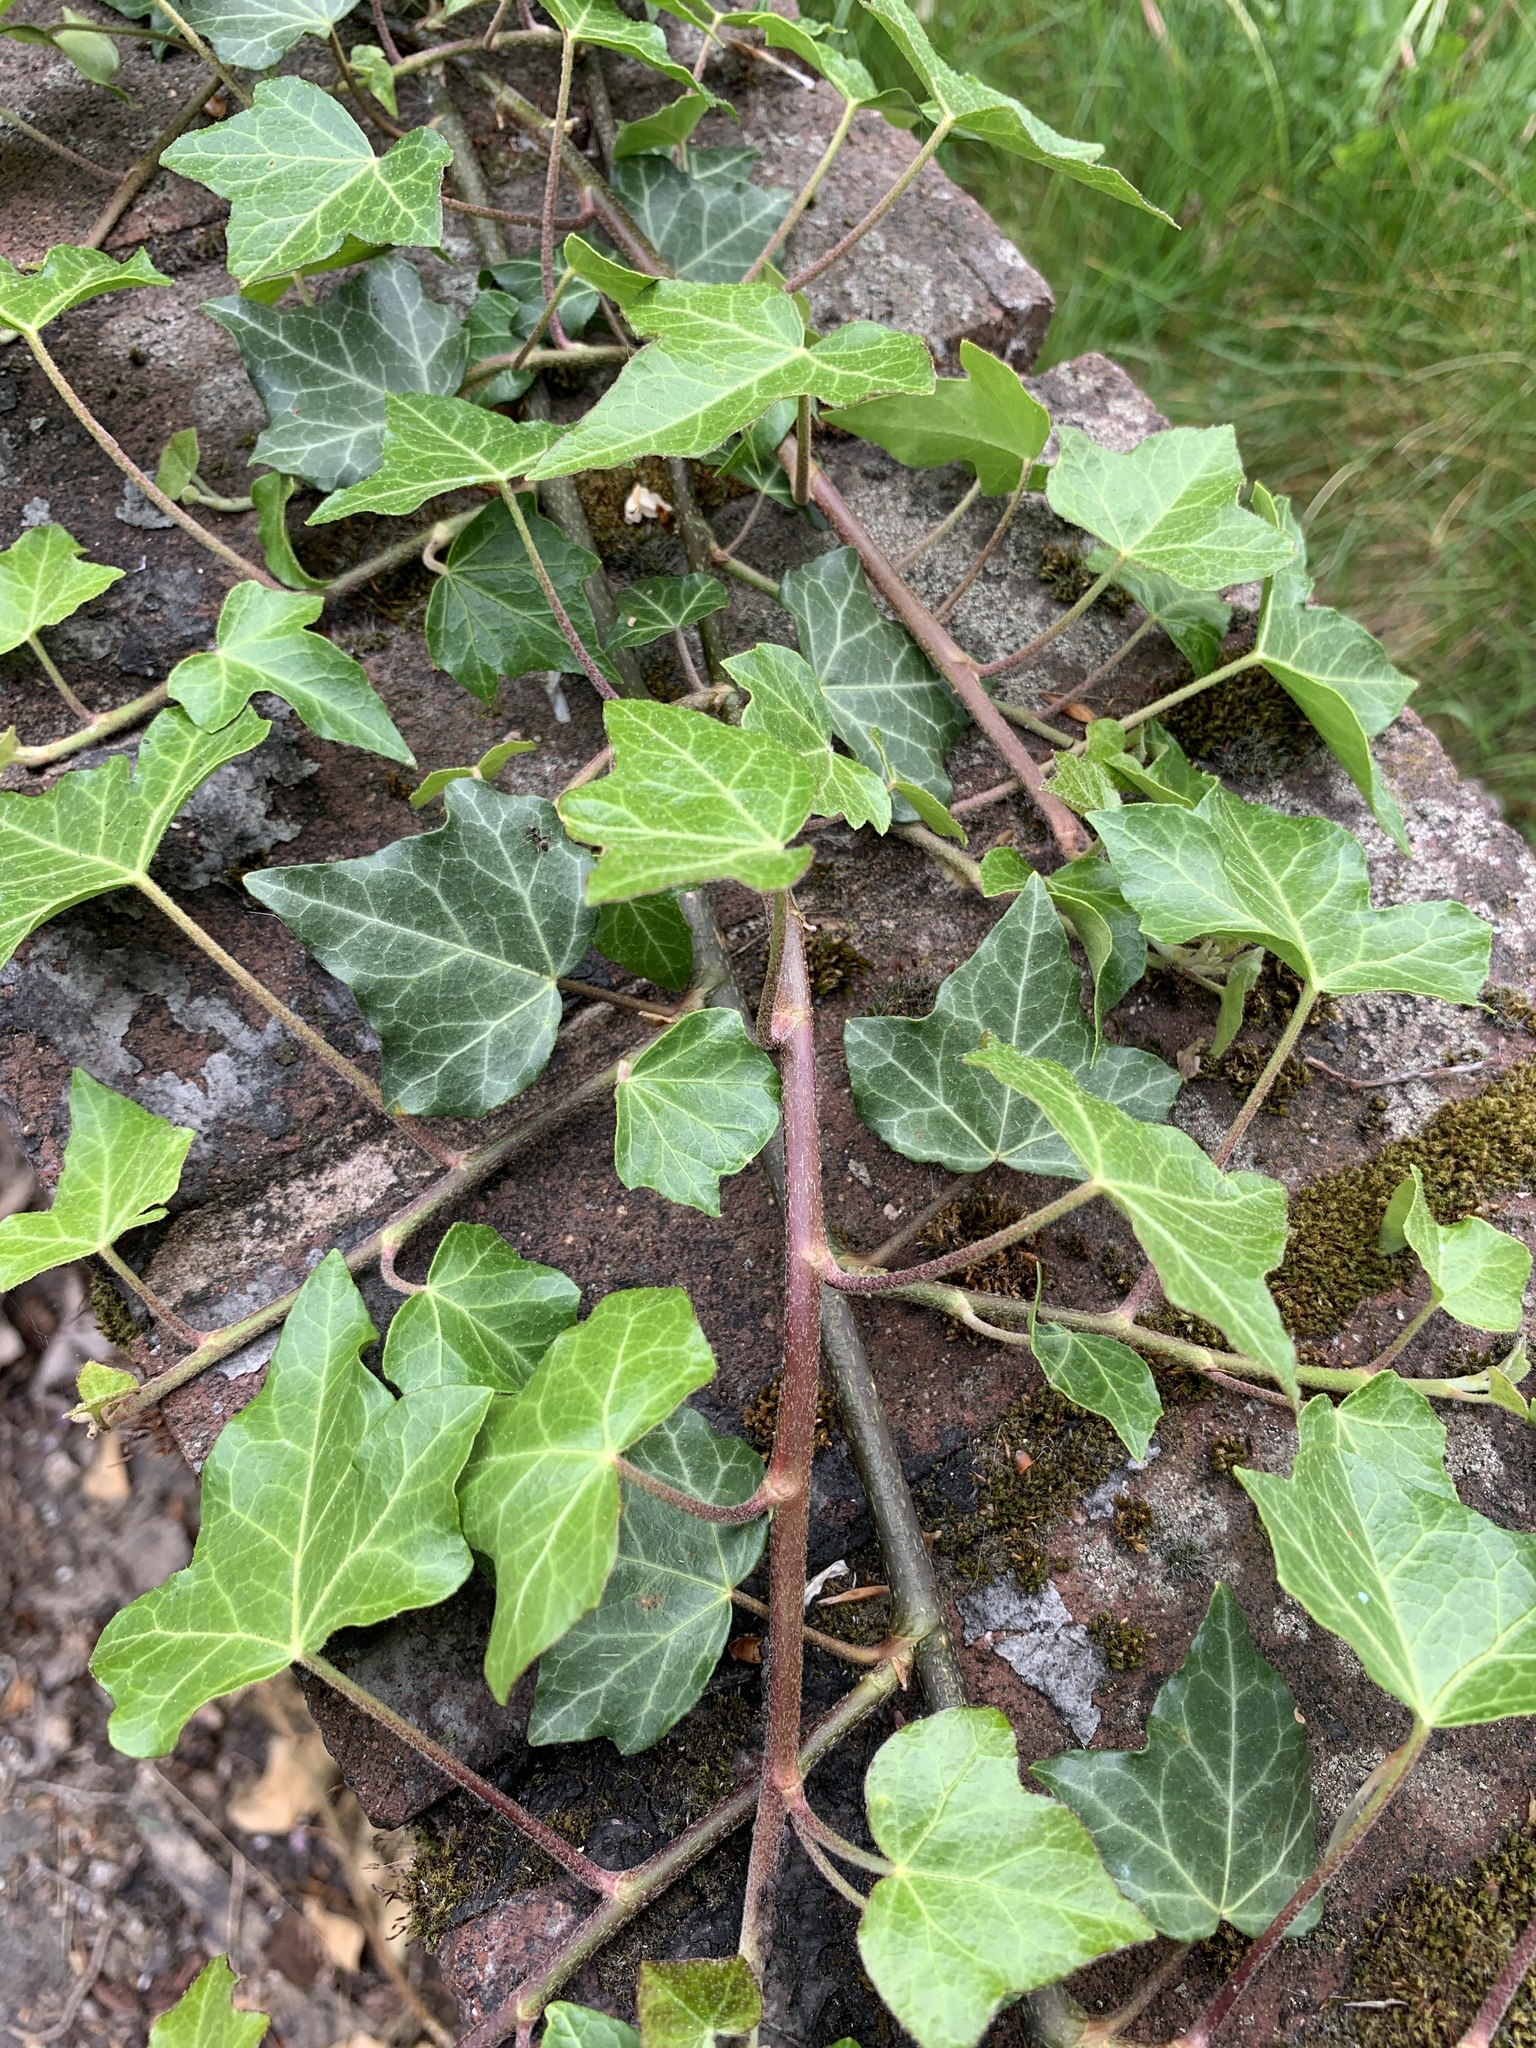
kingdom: Plantae
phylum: Tracheophyta
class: Magnoliopsida
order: Apiales
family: Araliaceae
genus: Hedera
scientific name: Hedera helix
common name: Ivy
